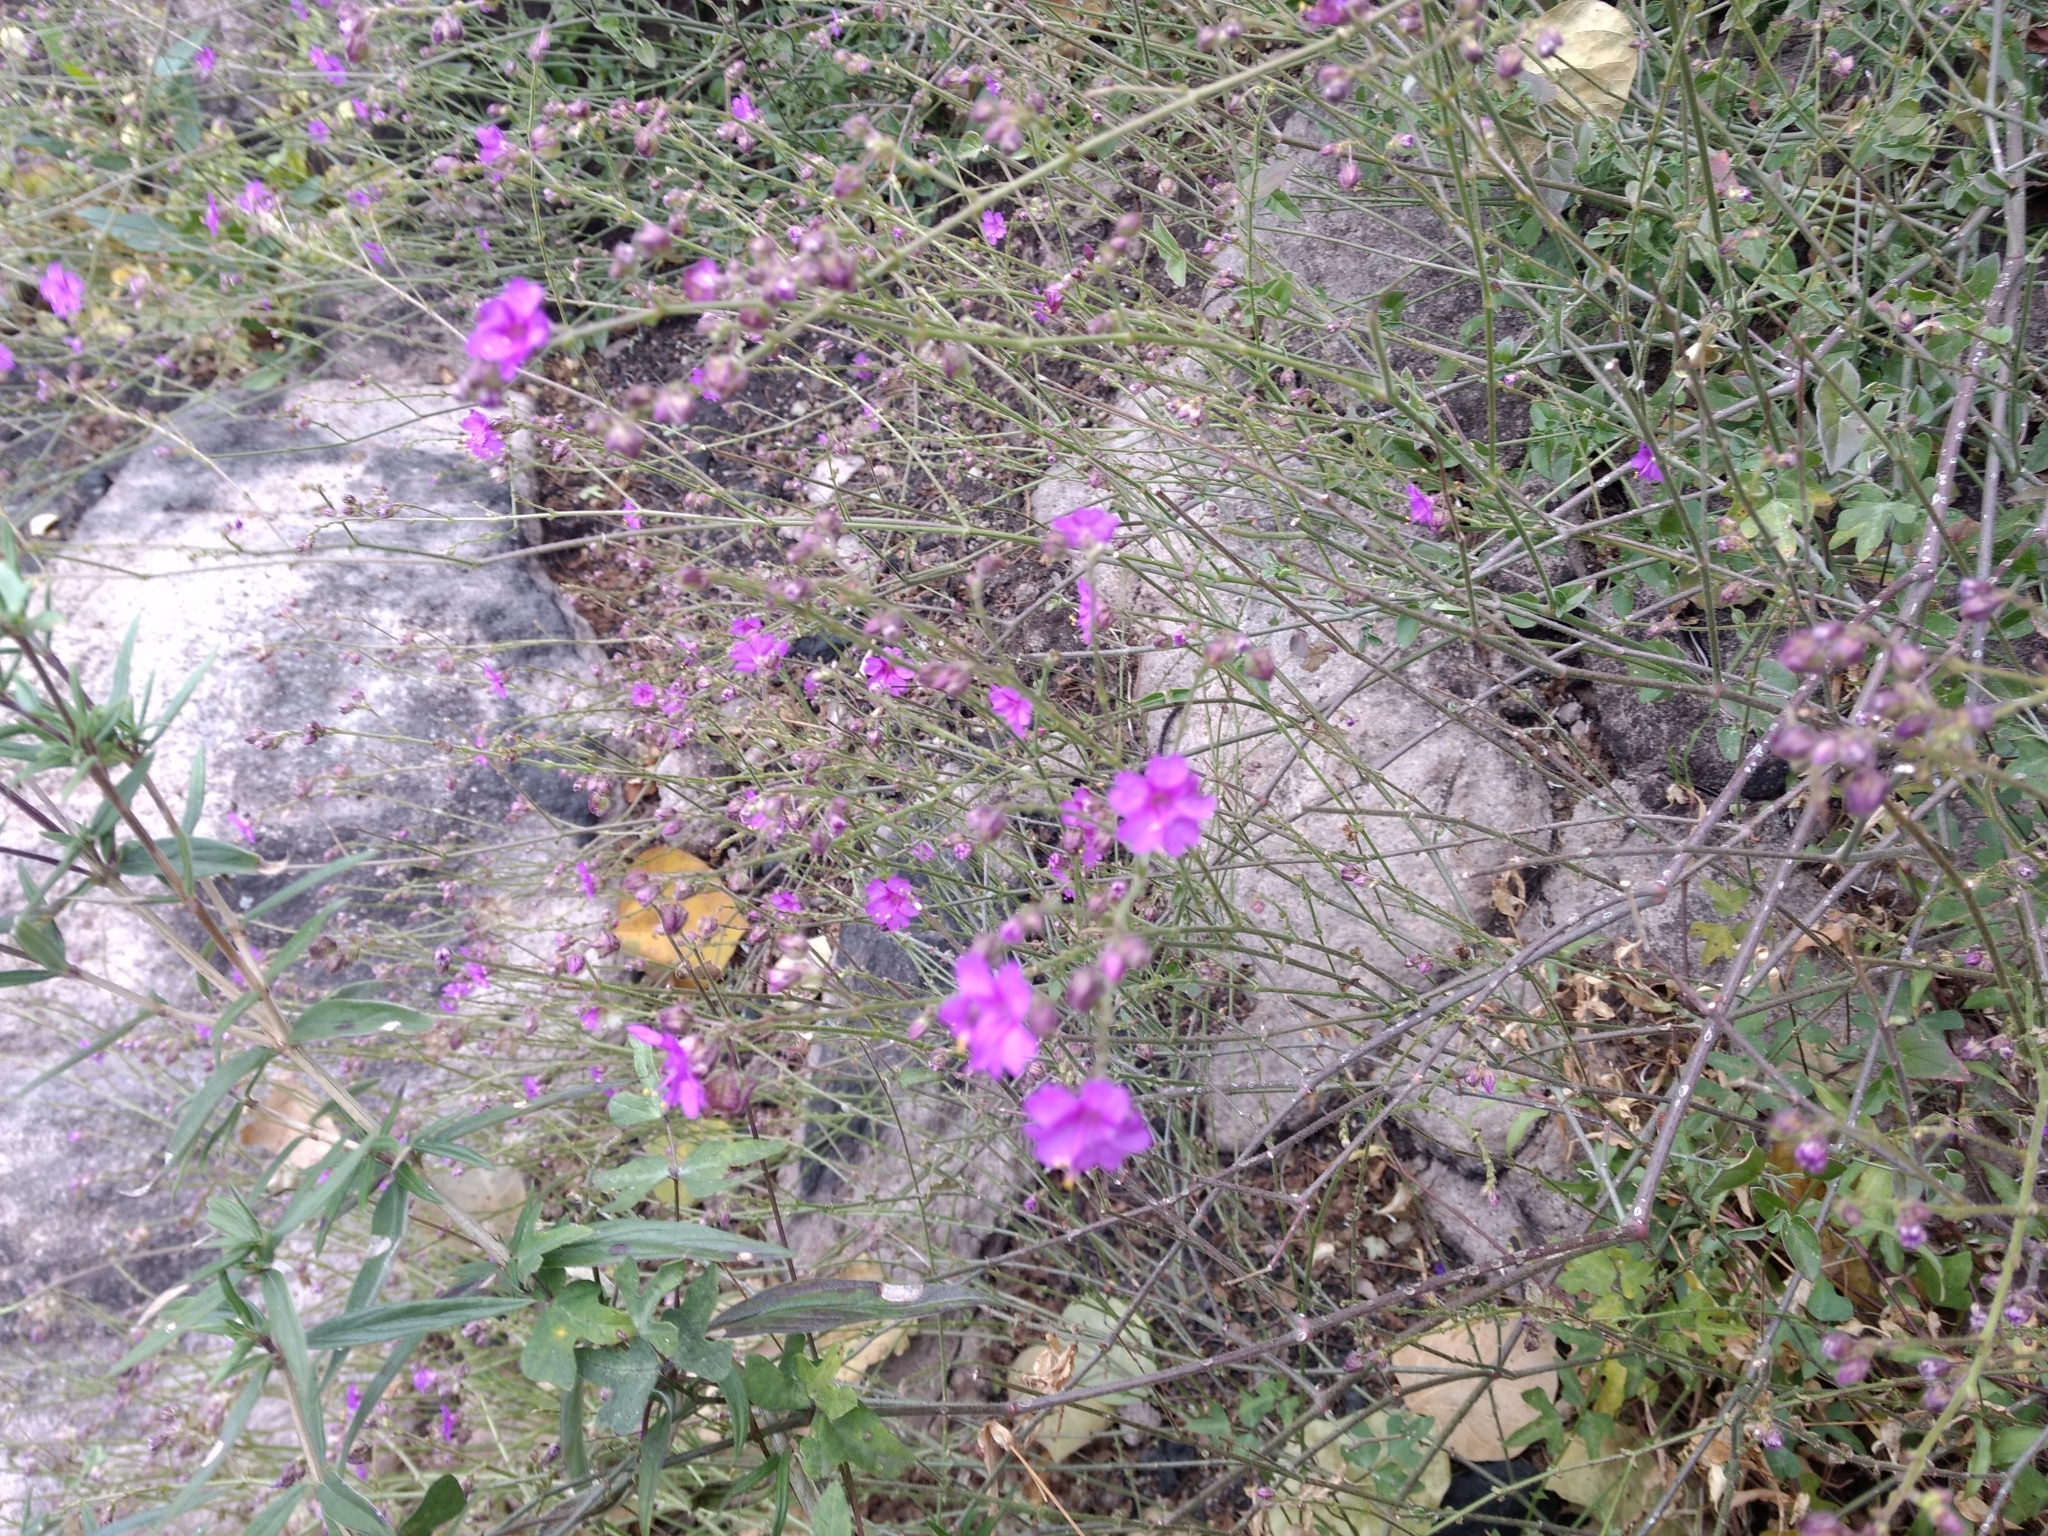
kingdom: Plantae
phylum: Tracheophyta
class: Magnoliopsida
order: Caryophyllales
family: Nyctaginaceae
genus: Mirabilis
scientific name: Mirabilis viscosa
